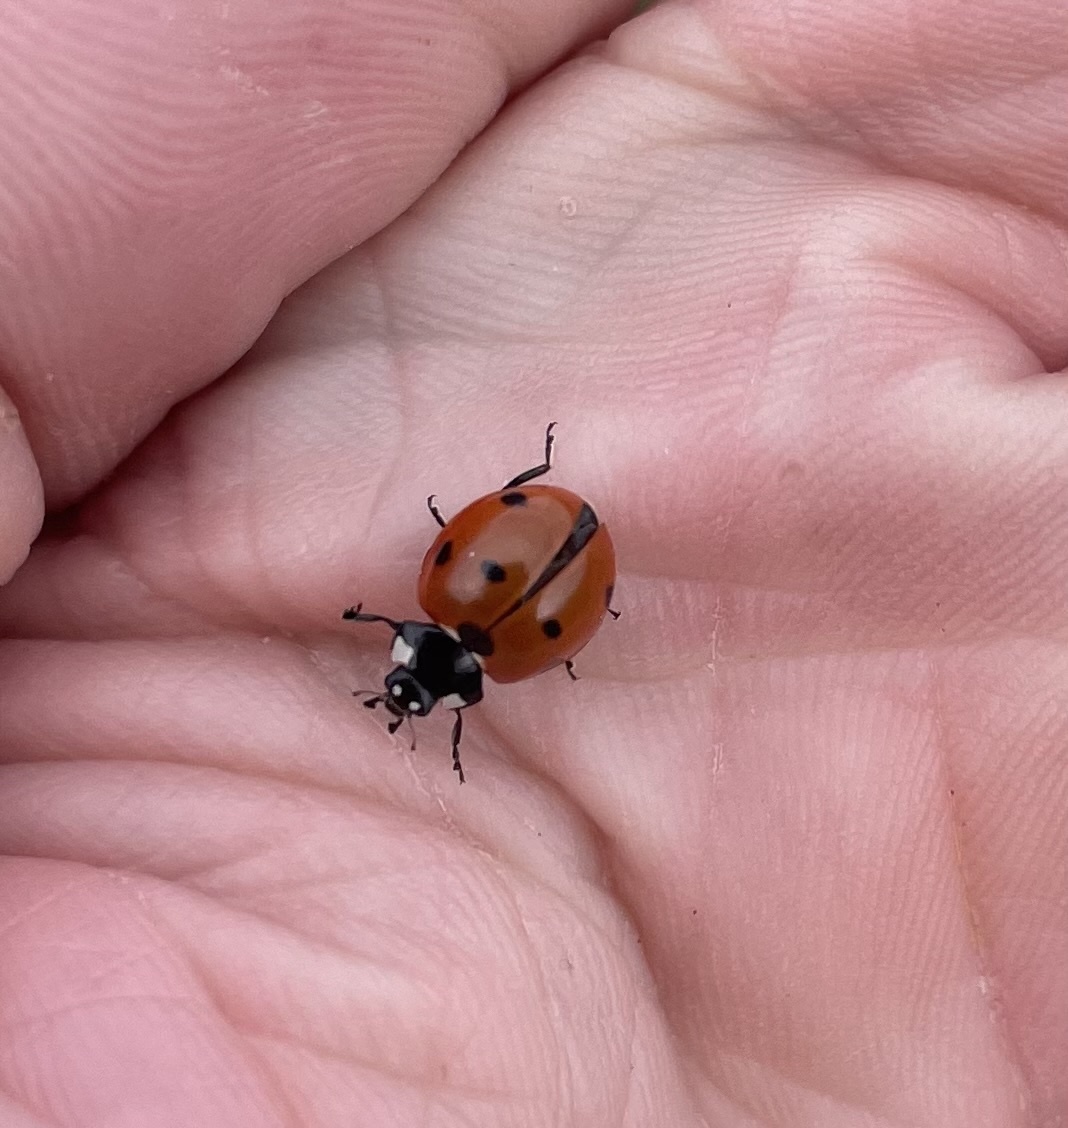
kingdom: Animalia
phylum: Arthropoda
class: Insecta
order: Coleoptera
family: Coccinellidae
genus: Coccinella
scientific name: Coccinella septempunctata
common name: Sevenspotted lady beetle
